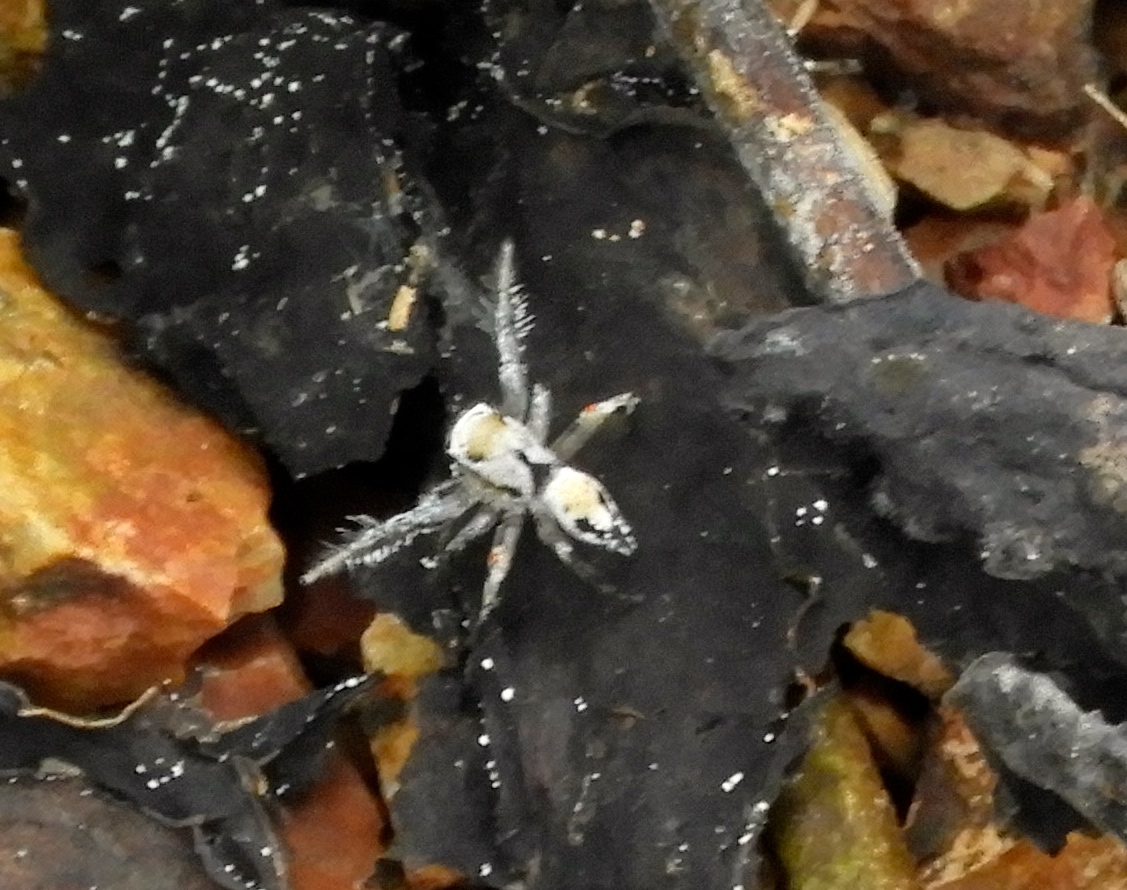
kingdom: Animalia
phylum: Arthropoda
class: Arachnida
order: Araneae
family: Salticidae
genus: Habronattus
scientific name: Habronattus aztecanus
